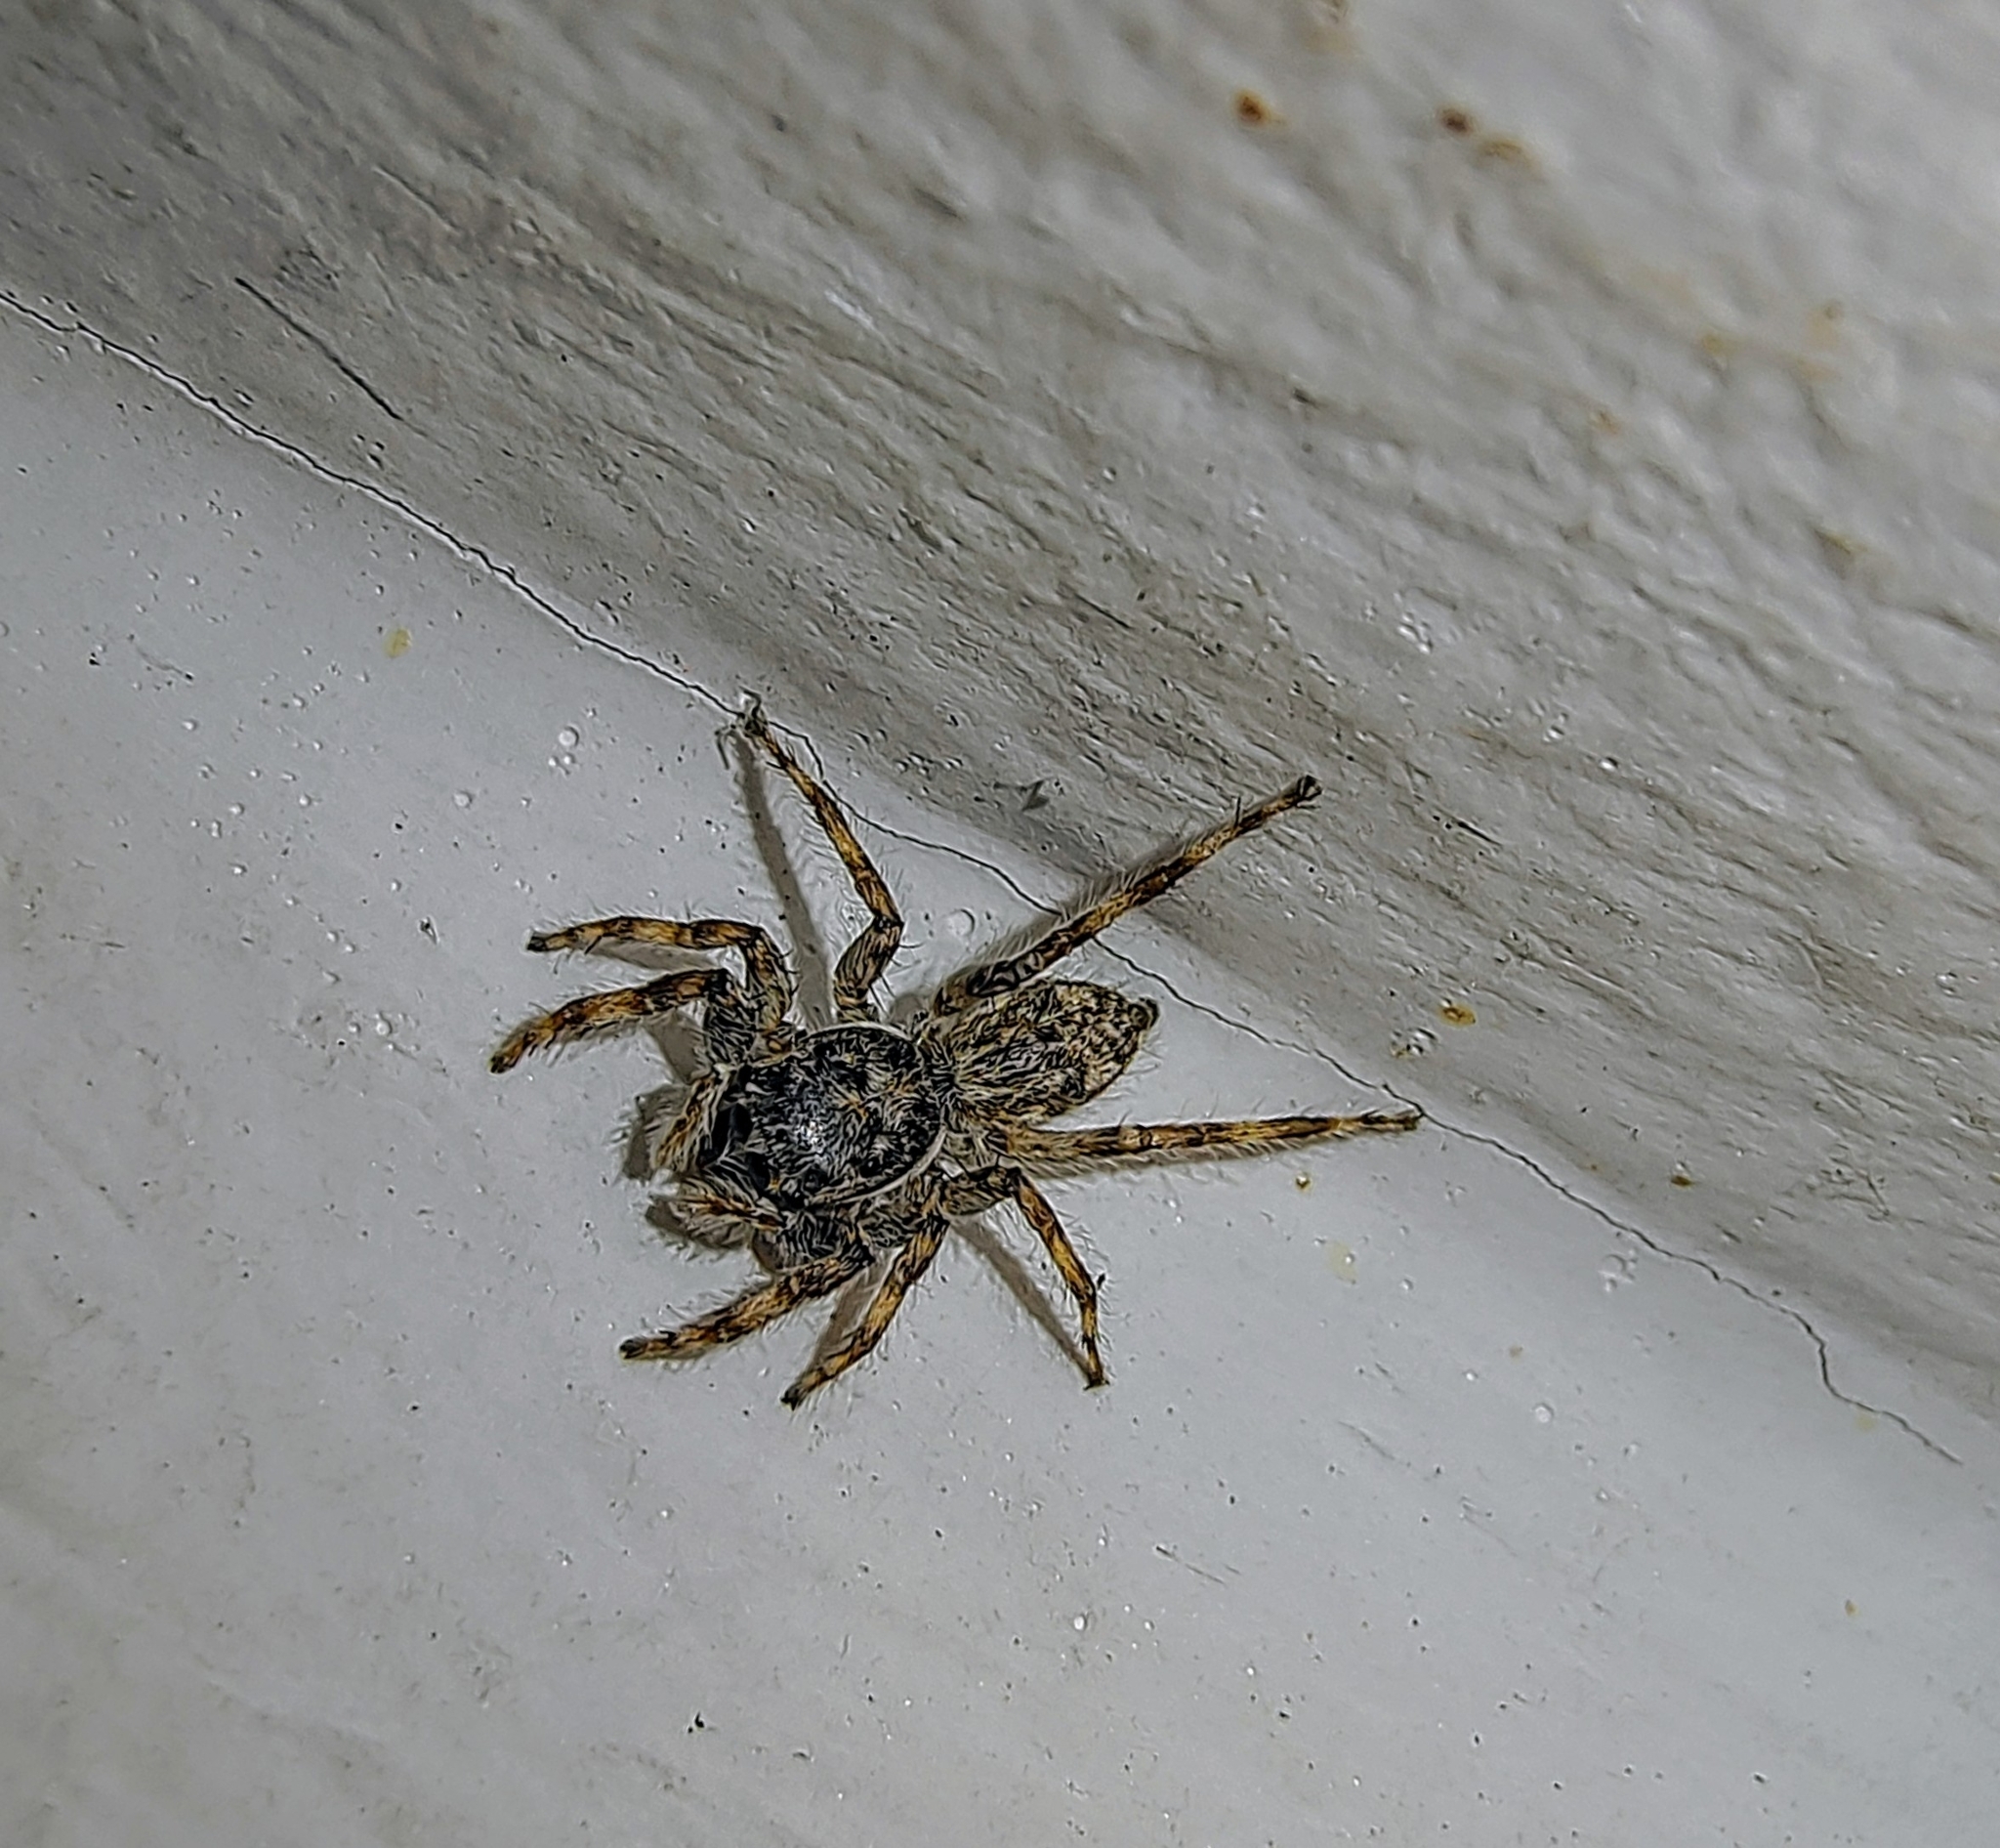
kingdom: Animalia
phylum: Arthropoda
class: Arachnida
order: Araneae
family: Salticidae
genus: Menemerus
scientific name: Menemerus nigli
